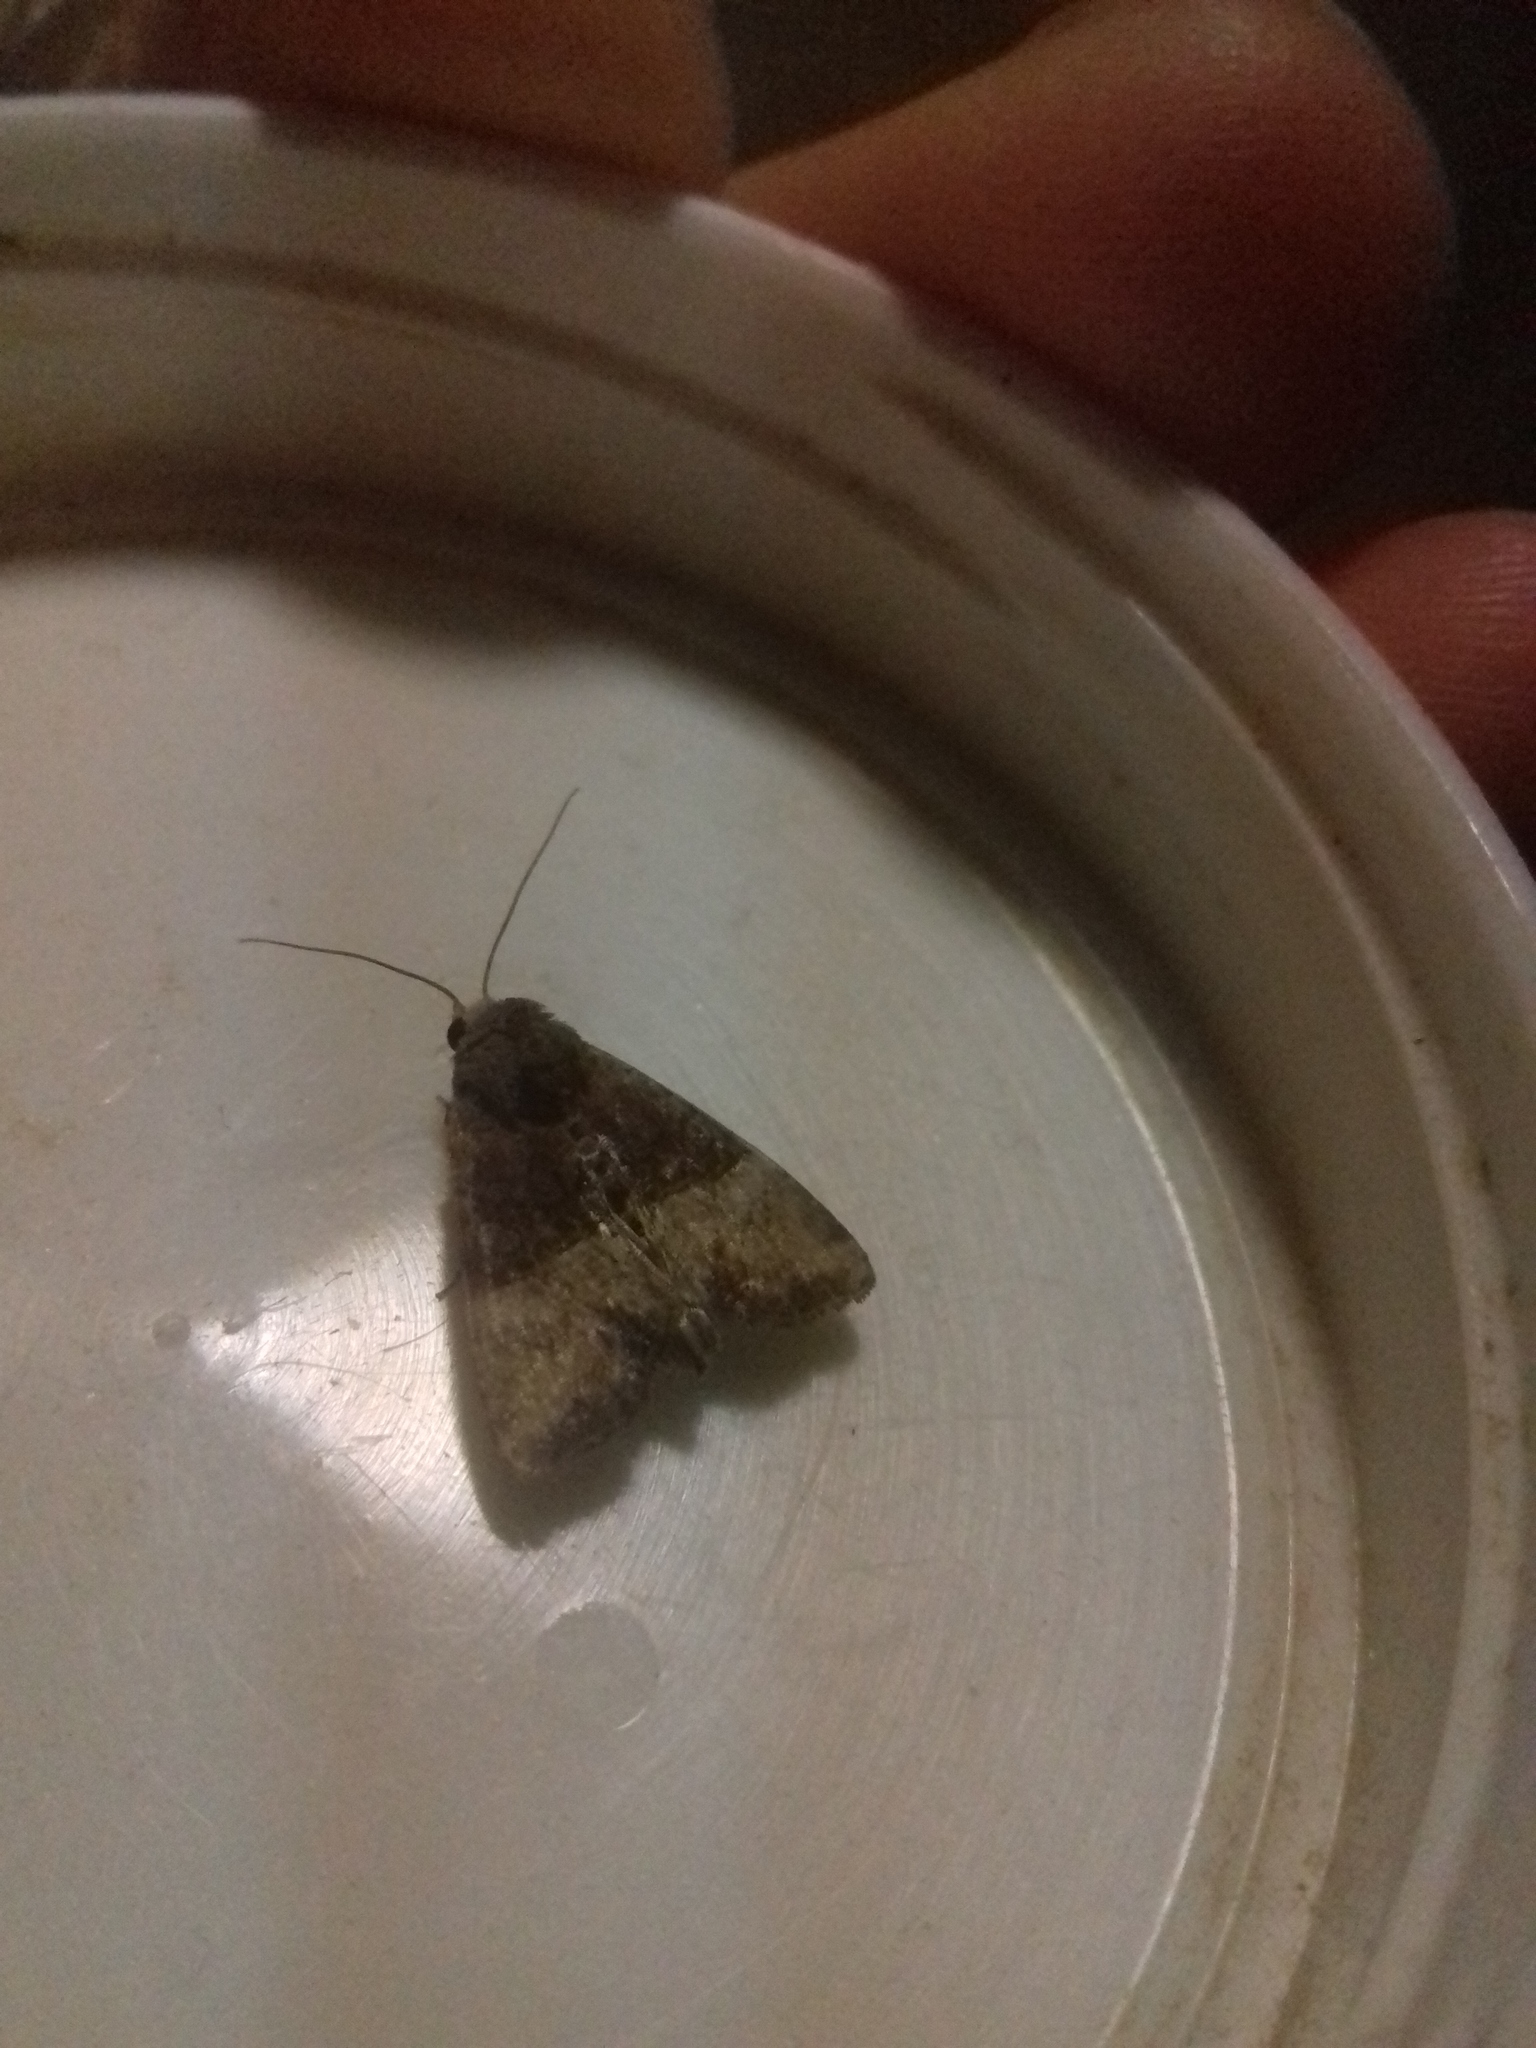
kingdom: Animalia
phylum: Arthropoda
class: Insecta
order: Lepidoptera
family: Noctuidae
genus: Mesoligia
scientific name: Mesoligia furuncula
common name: Cloaked minor
